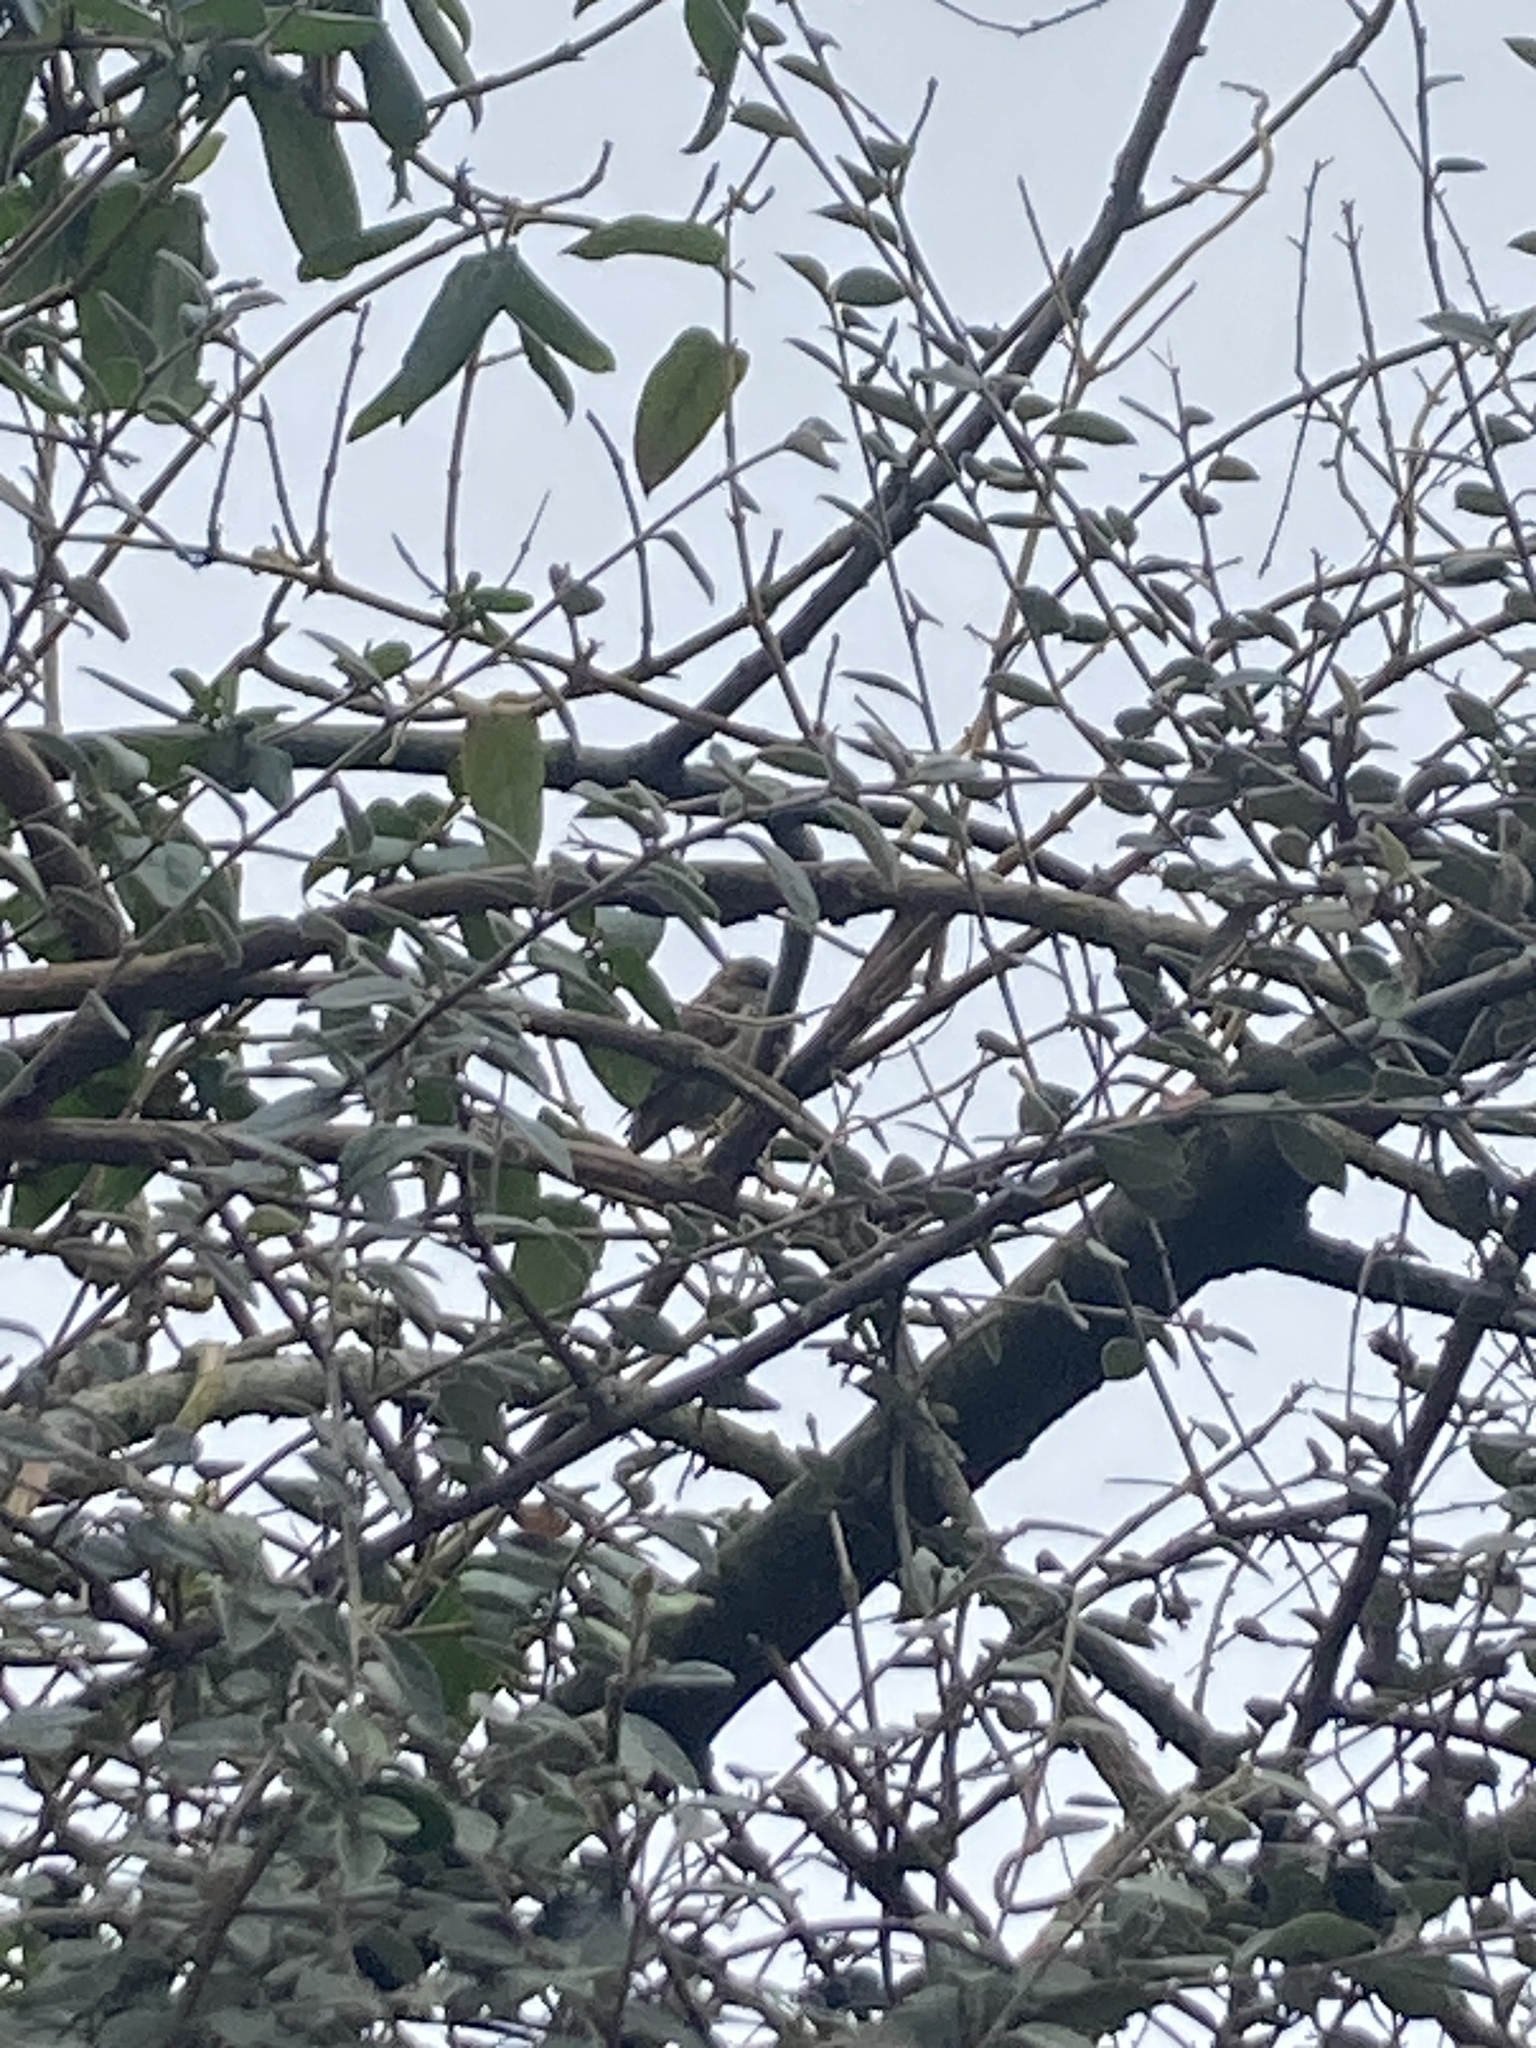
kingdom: Animalia
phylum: Chordata
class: Aves
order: Passeriformes
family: Passeridae
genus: Passer
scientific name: Passer domesticus
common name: House sparrow
